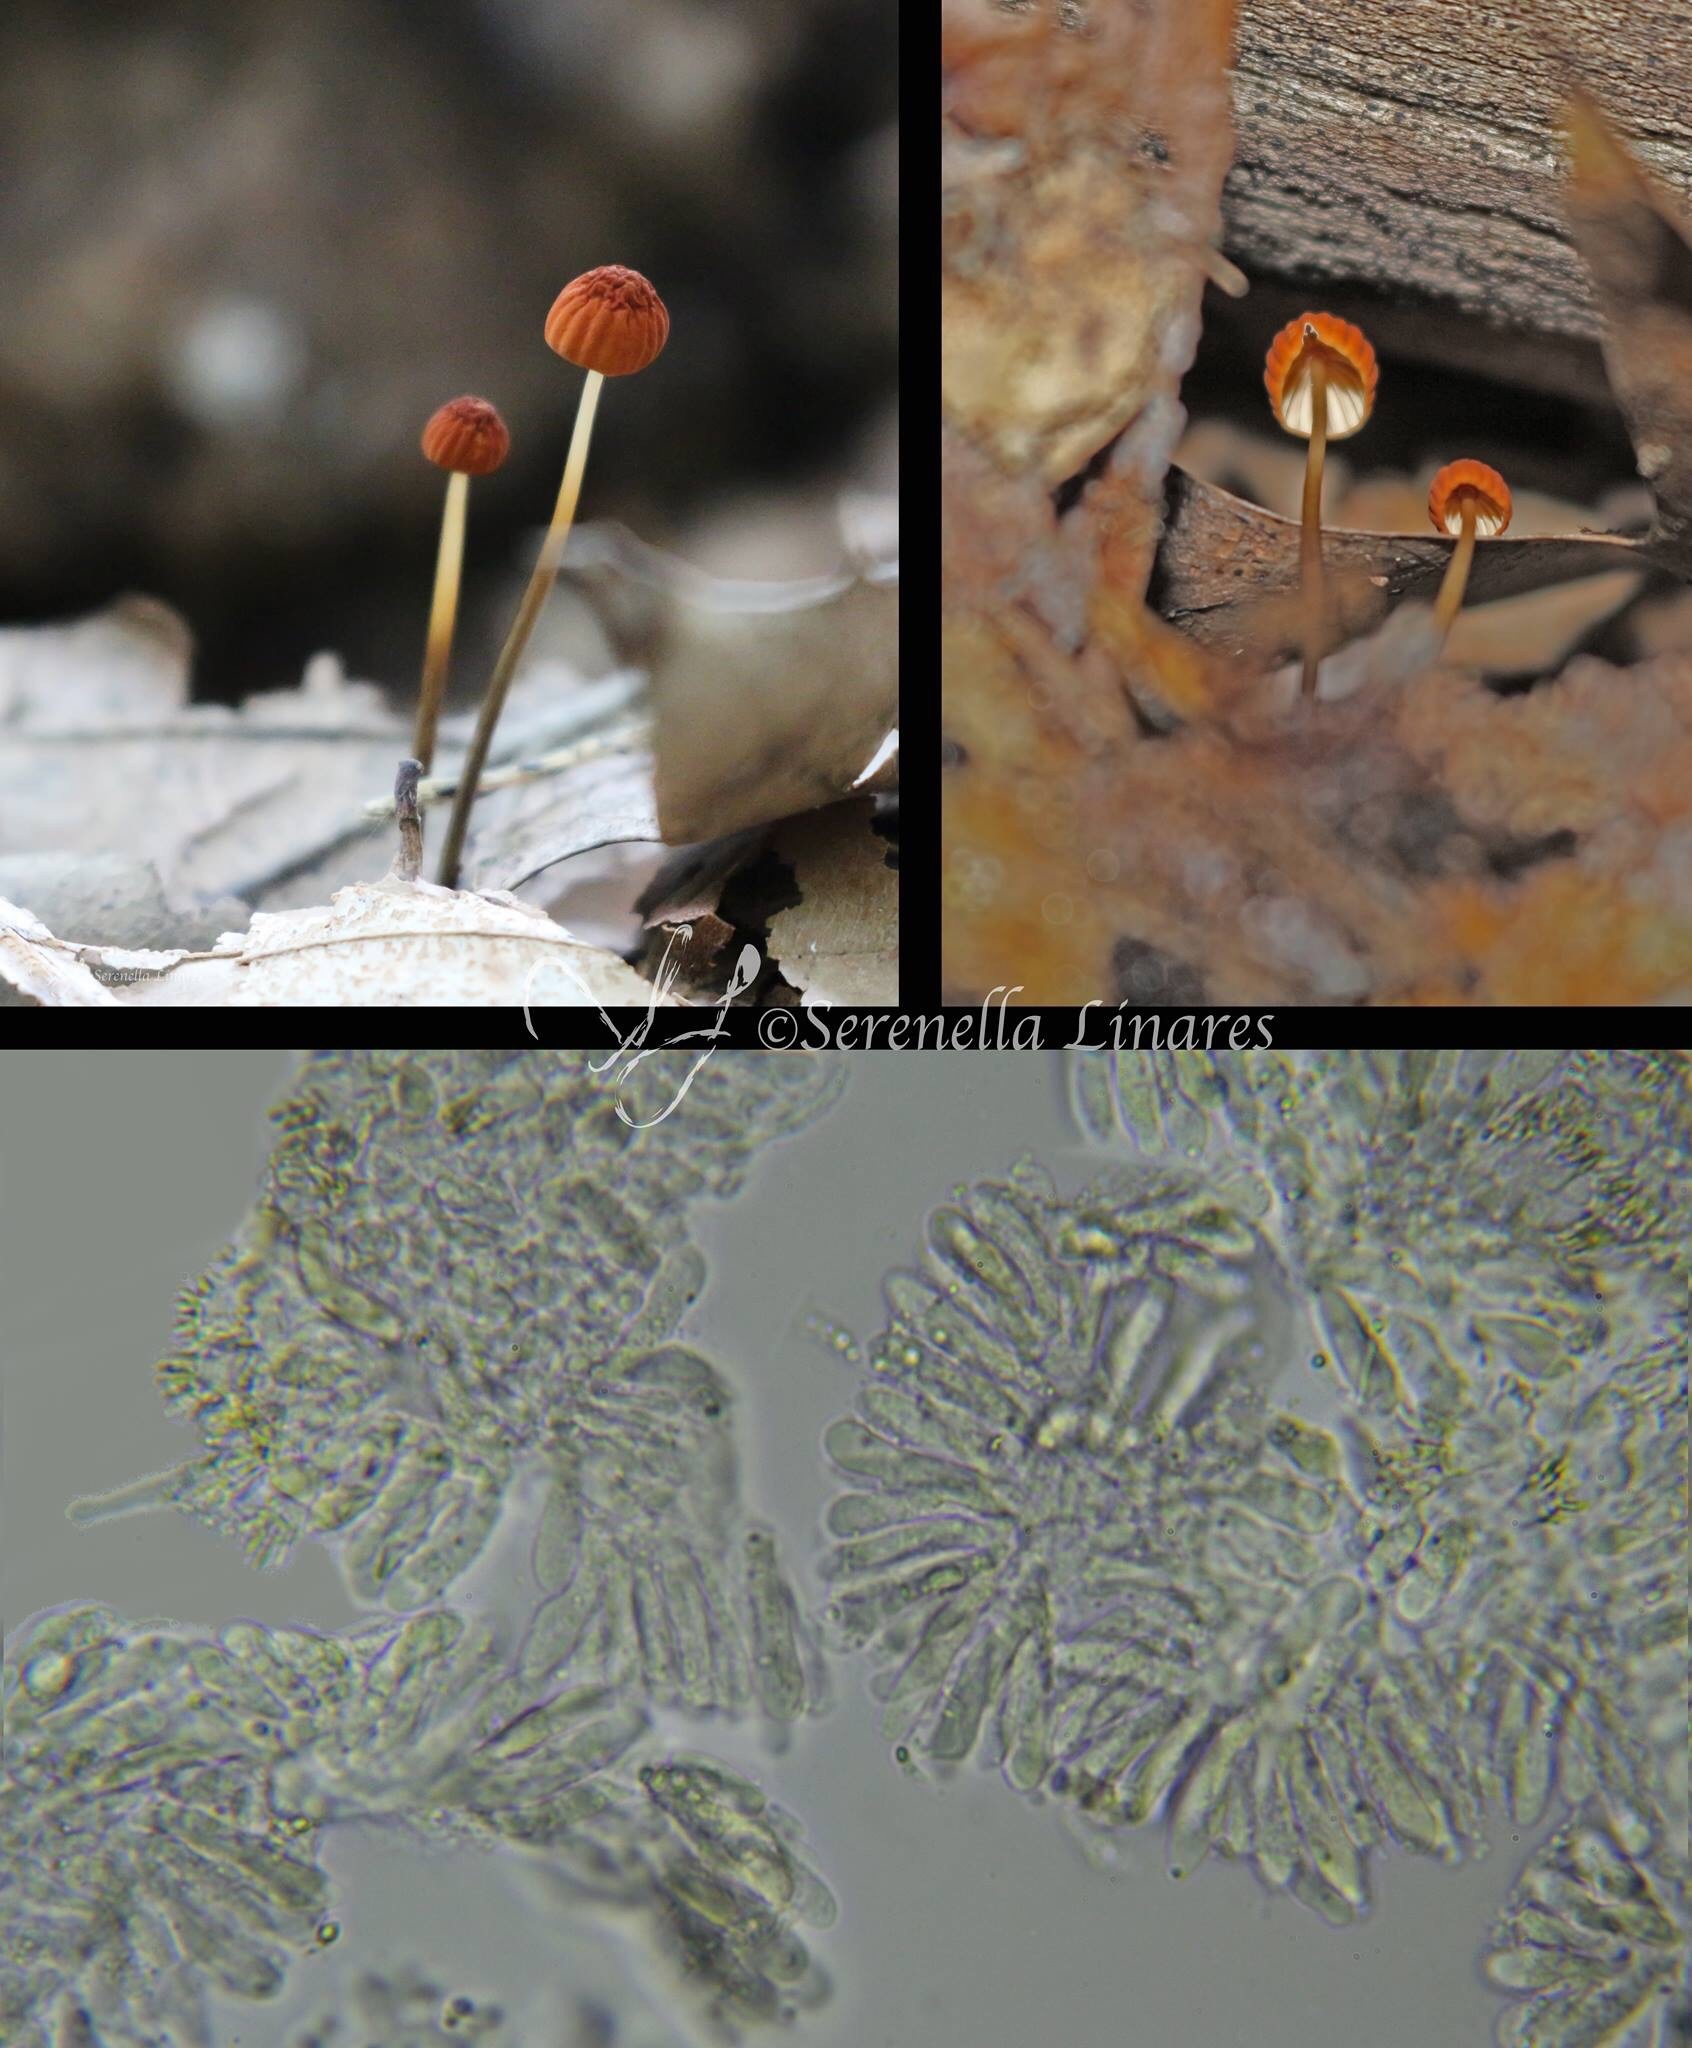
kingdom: Fungi
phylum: Basidiomycota
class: Agaricomycetes
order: Agaricales
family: Marasmiaceae
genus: Marasmius
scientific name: Marasmius siccus
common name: Orange pinwheel
